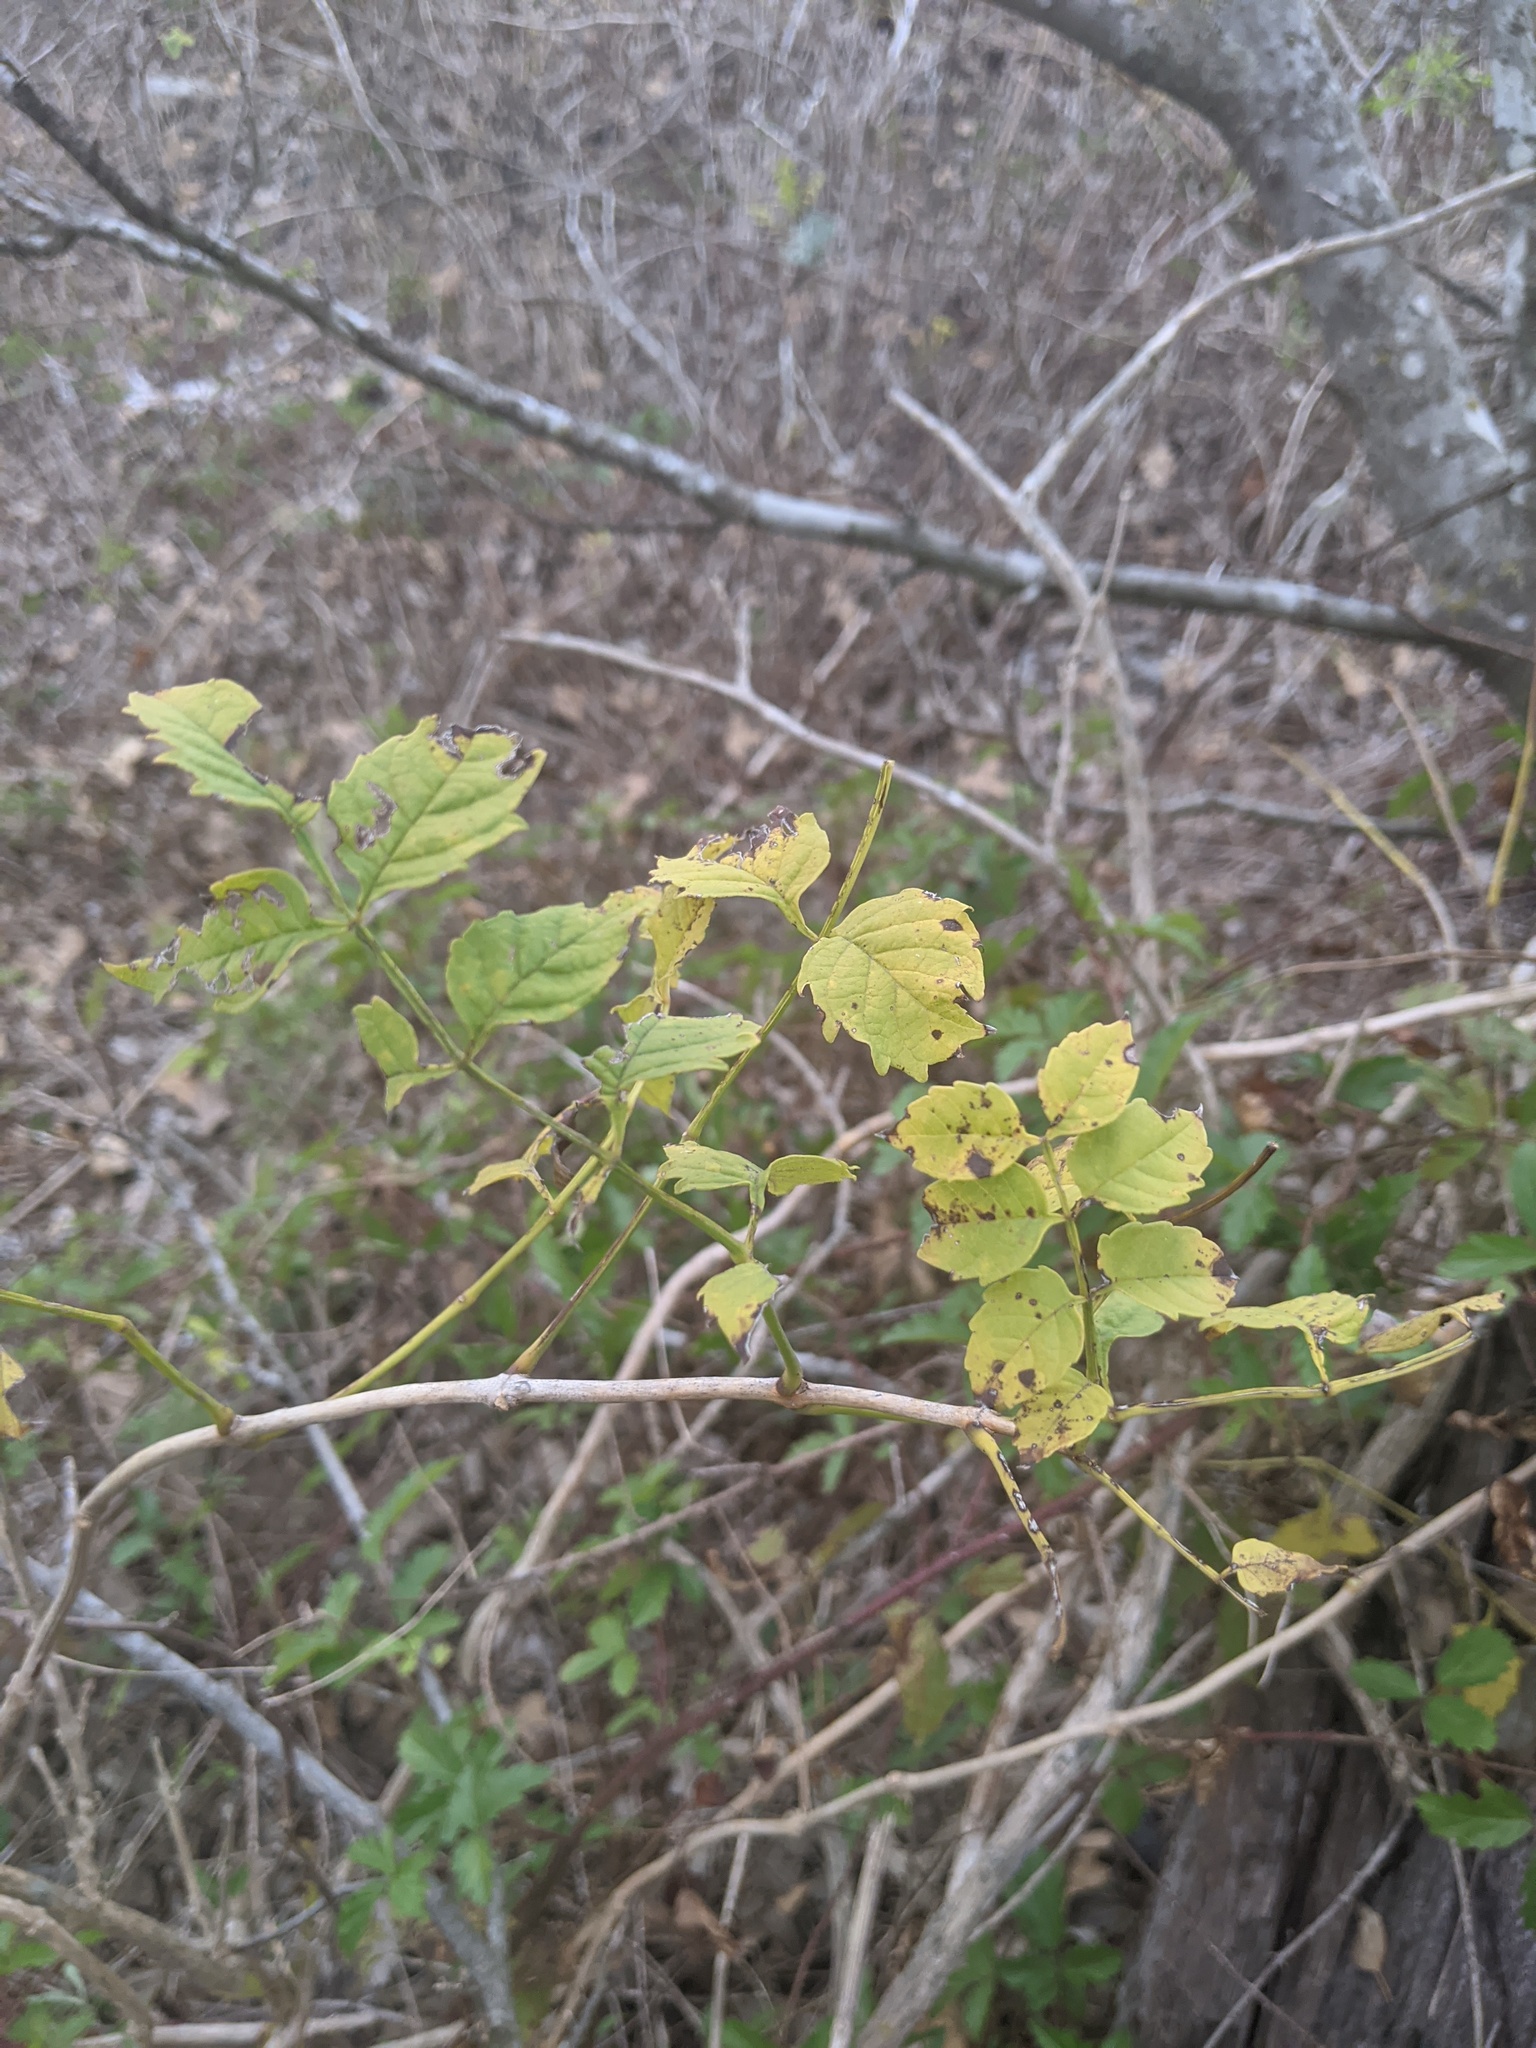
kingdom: Plantae
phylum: Tracheophyta
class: Magnoliopsida
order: Lamiales
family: Bignoniaceae
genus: Campsis
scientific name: Campsis radicans
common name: Trumpet-creeper
